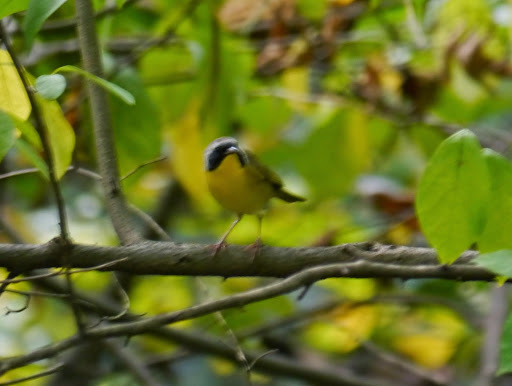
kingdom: Animalia
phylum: Chordata
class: Aves
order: Passeriformes
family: Parulidae
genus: Geothlypis
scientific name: Geothlypis trichas
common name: Common yellowthroat
